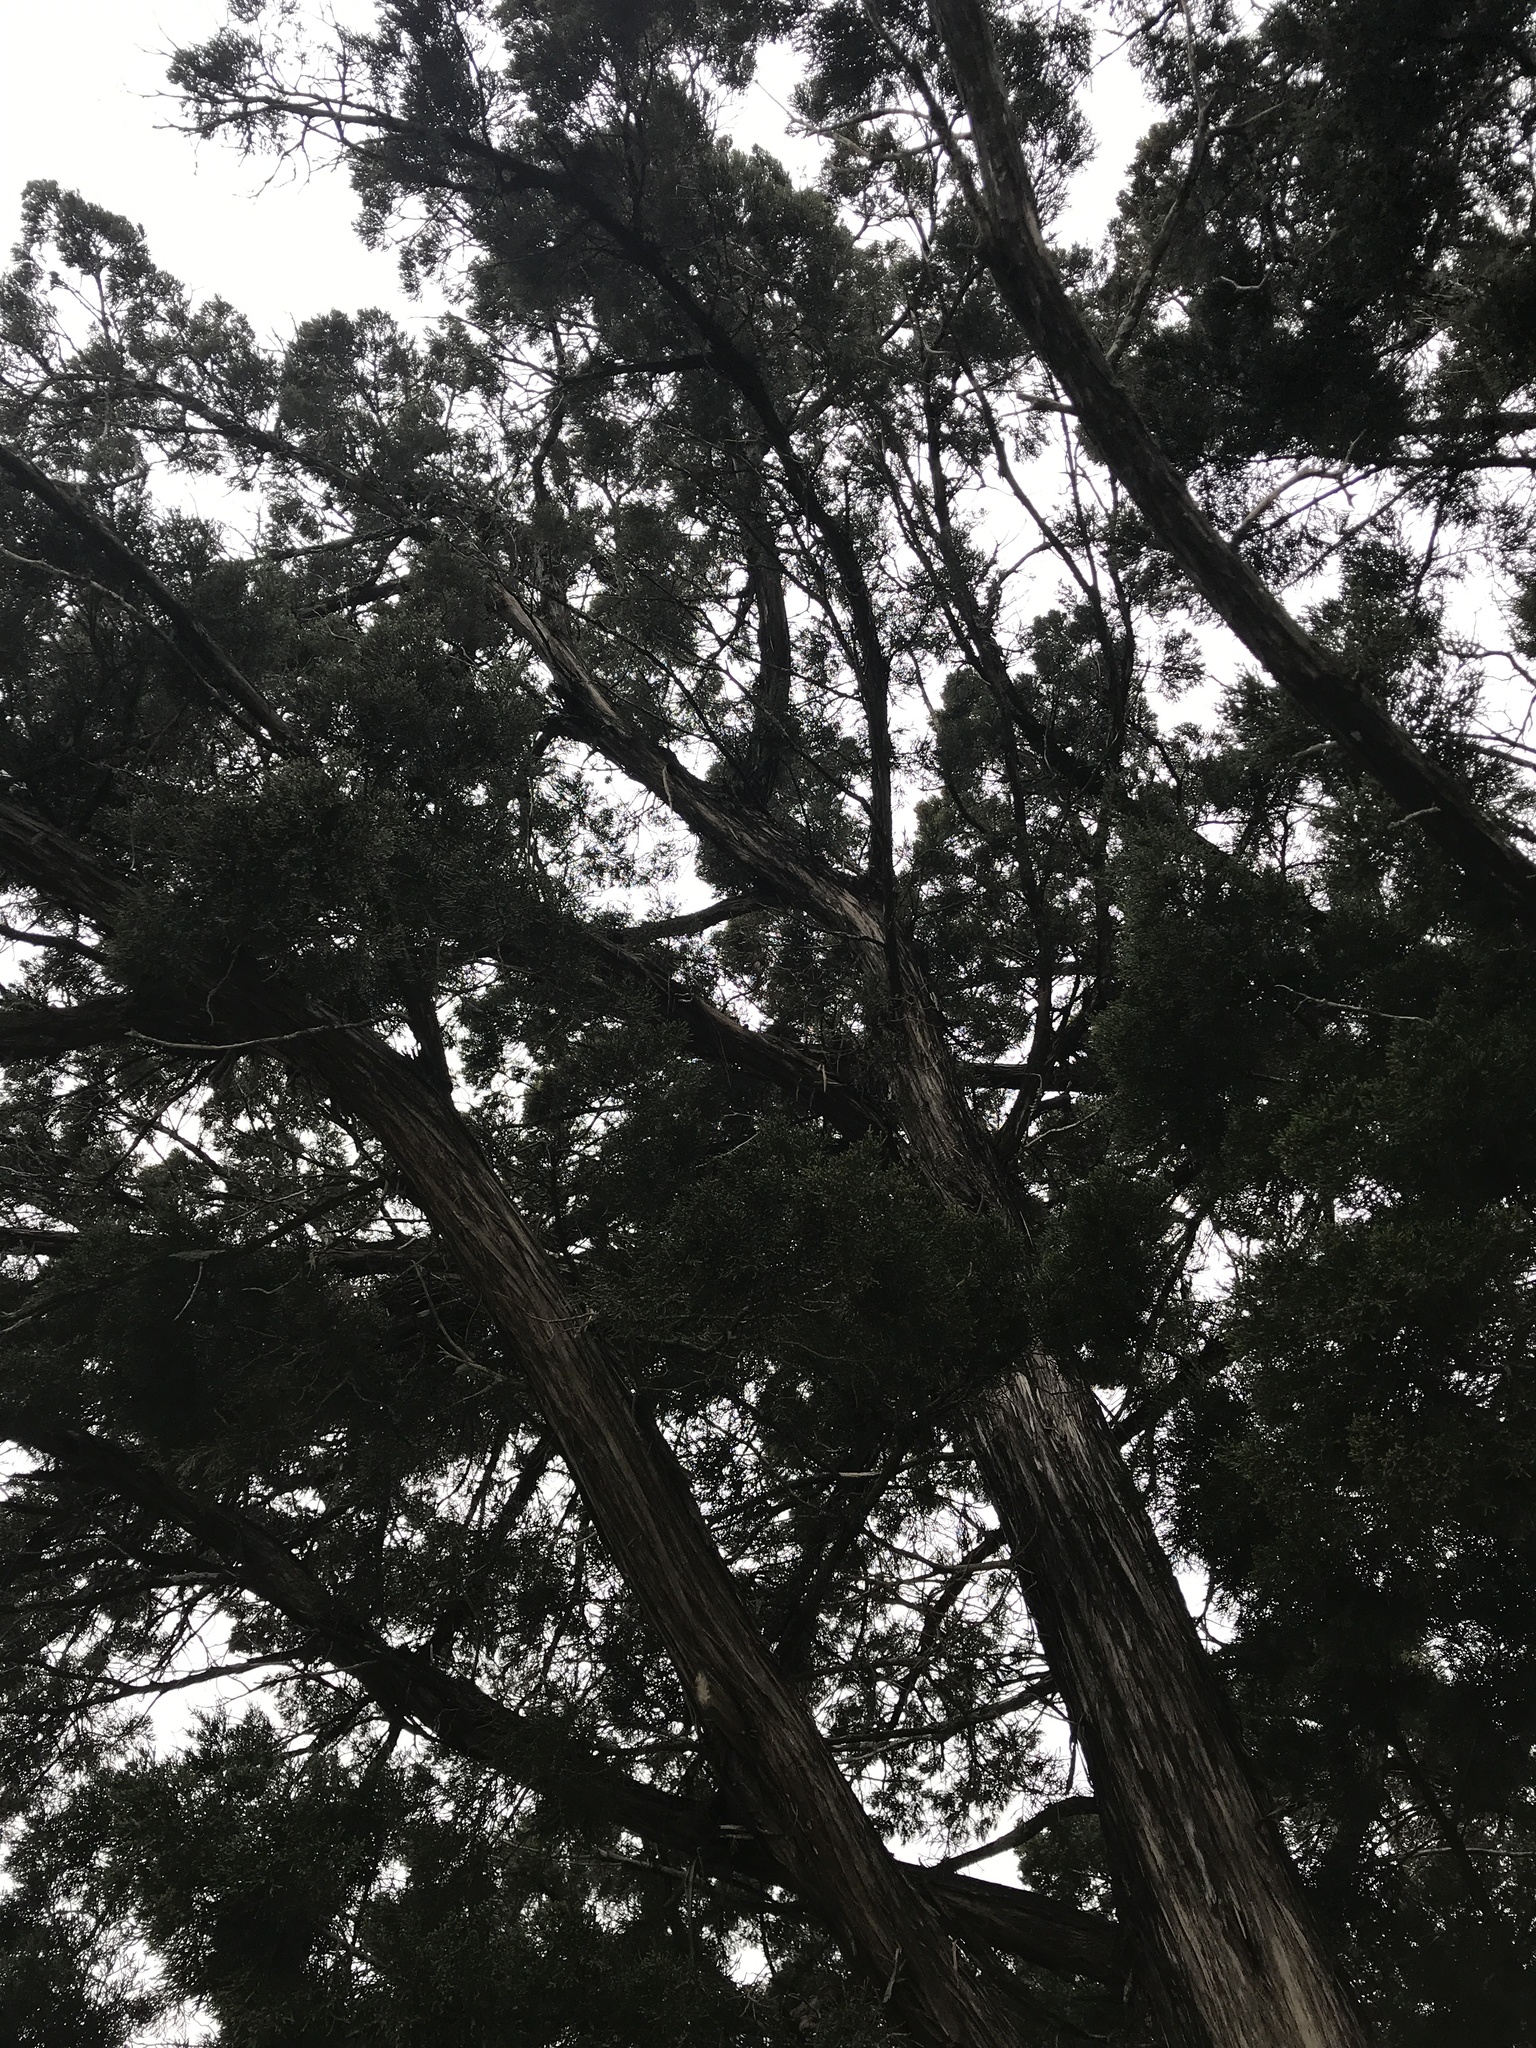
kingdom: Plantae
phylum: Tracheophyta
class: Pinopsida
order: Pinales
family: Cupressaceae
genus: Juniperus
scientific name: Juniperus ashei
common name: Mexican juniper
